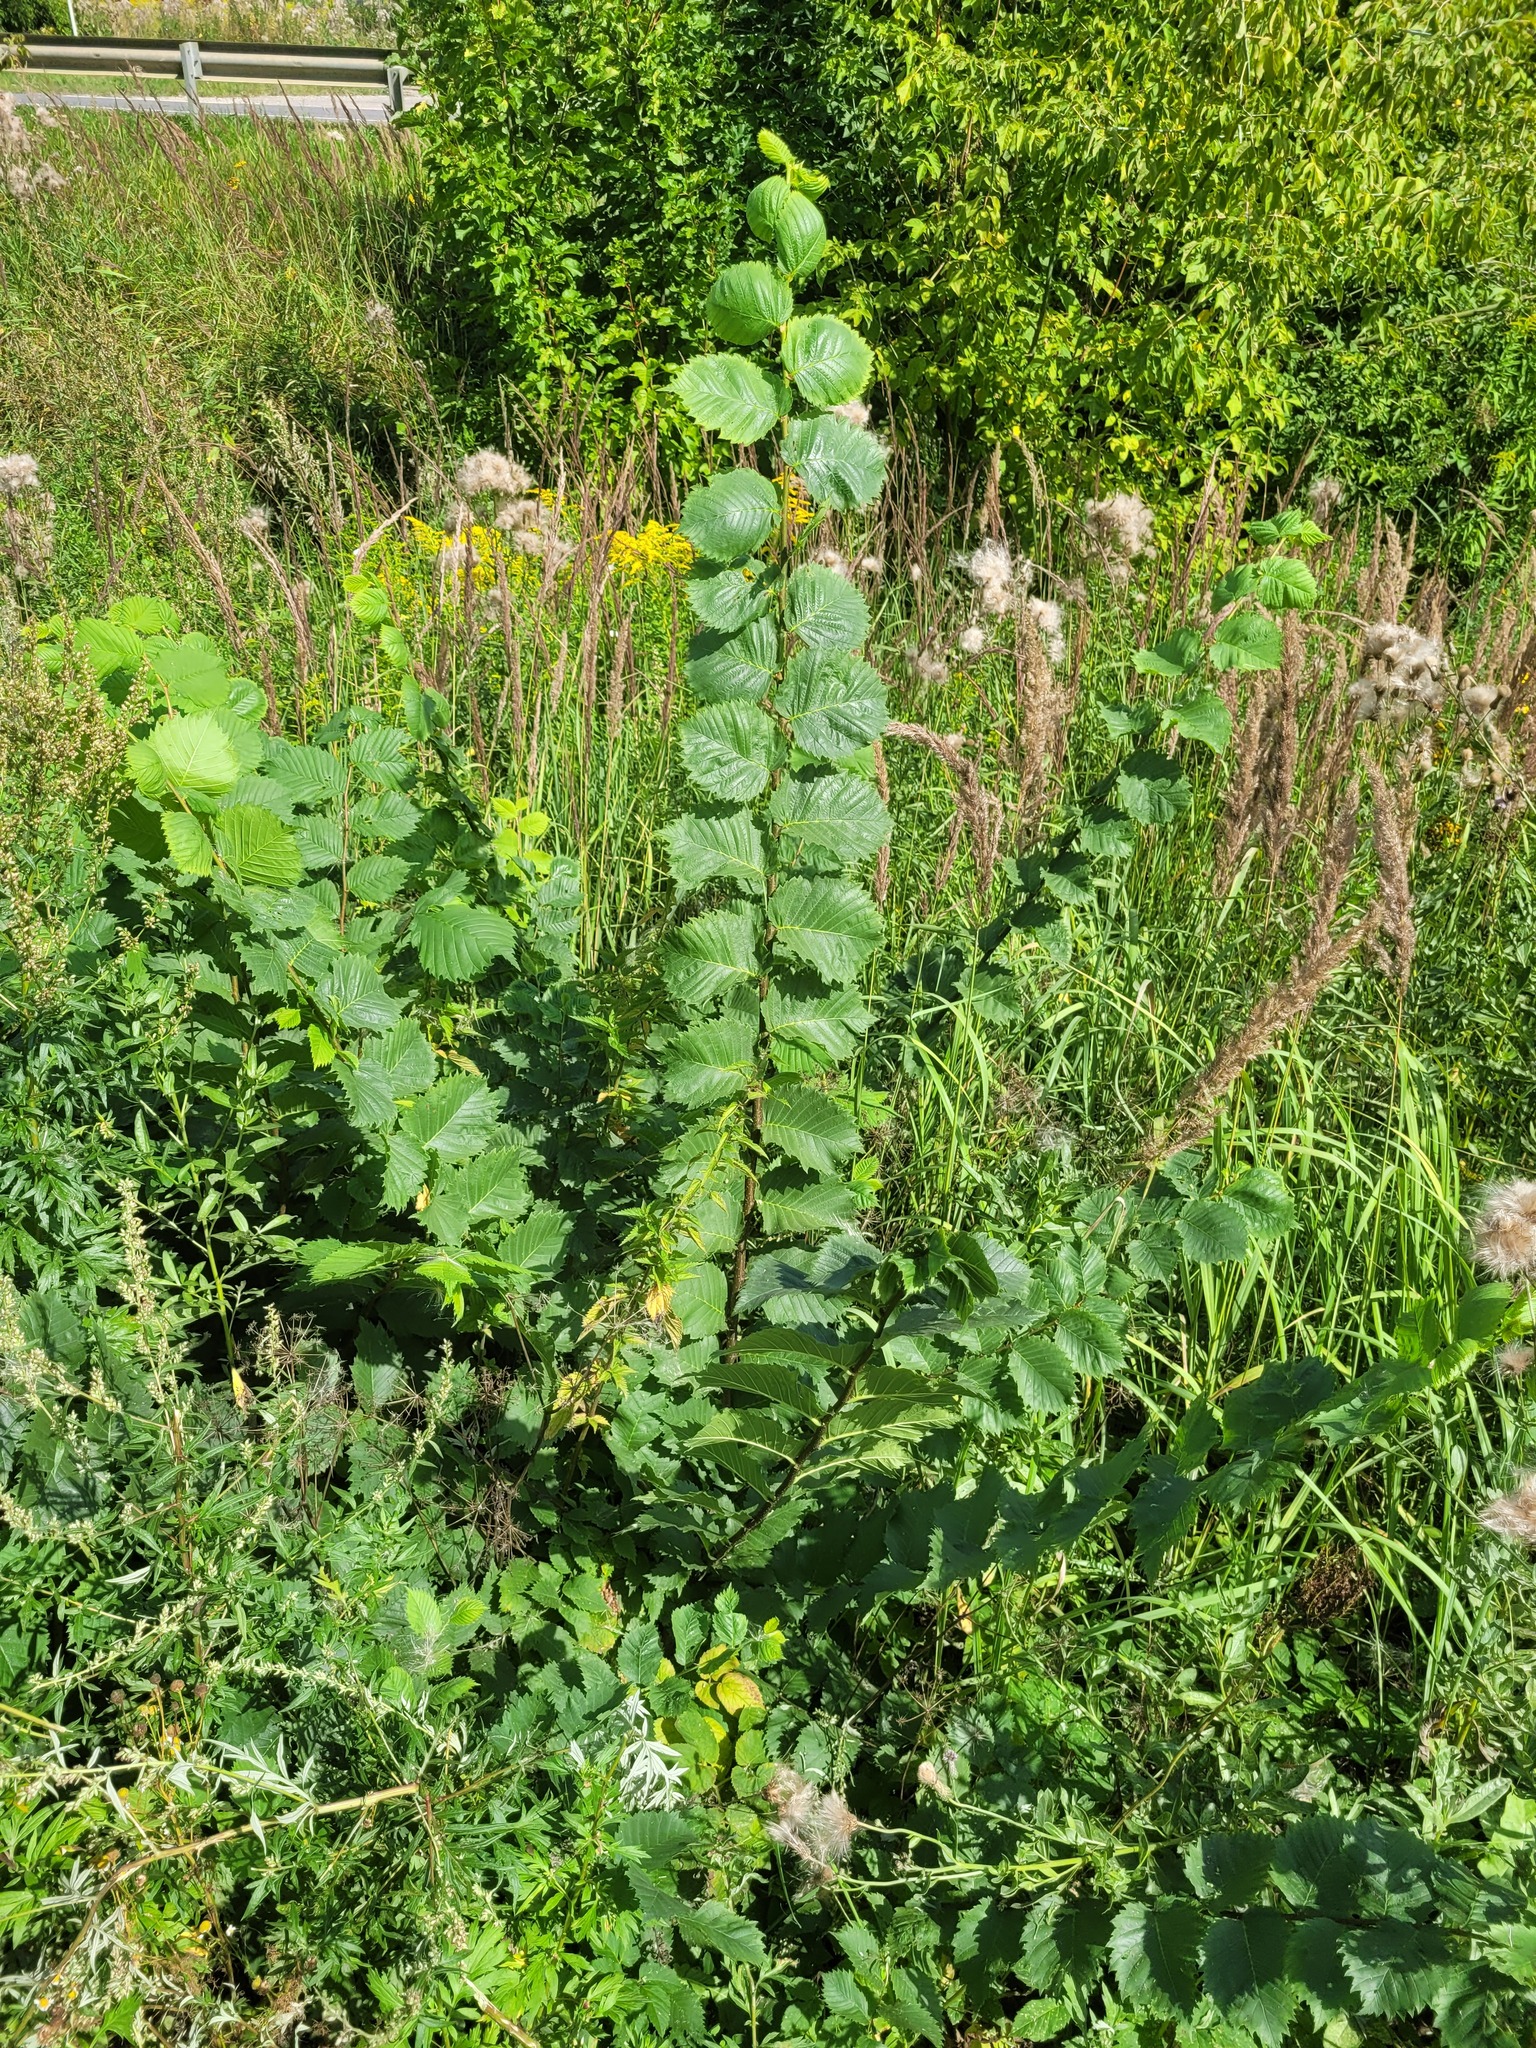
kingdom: Plantae
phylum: Tracheophyta
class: Magnoliopsida
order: Rosales
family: Ulmaceae
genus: Ulmus
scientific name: Ulmus laevis
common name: European white-elm
